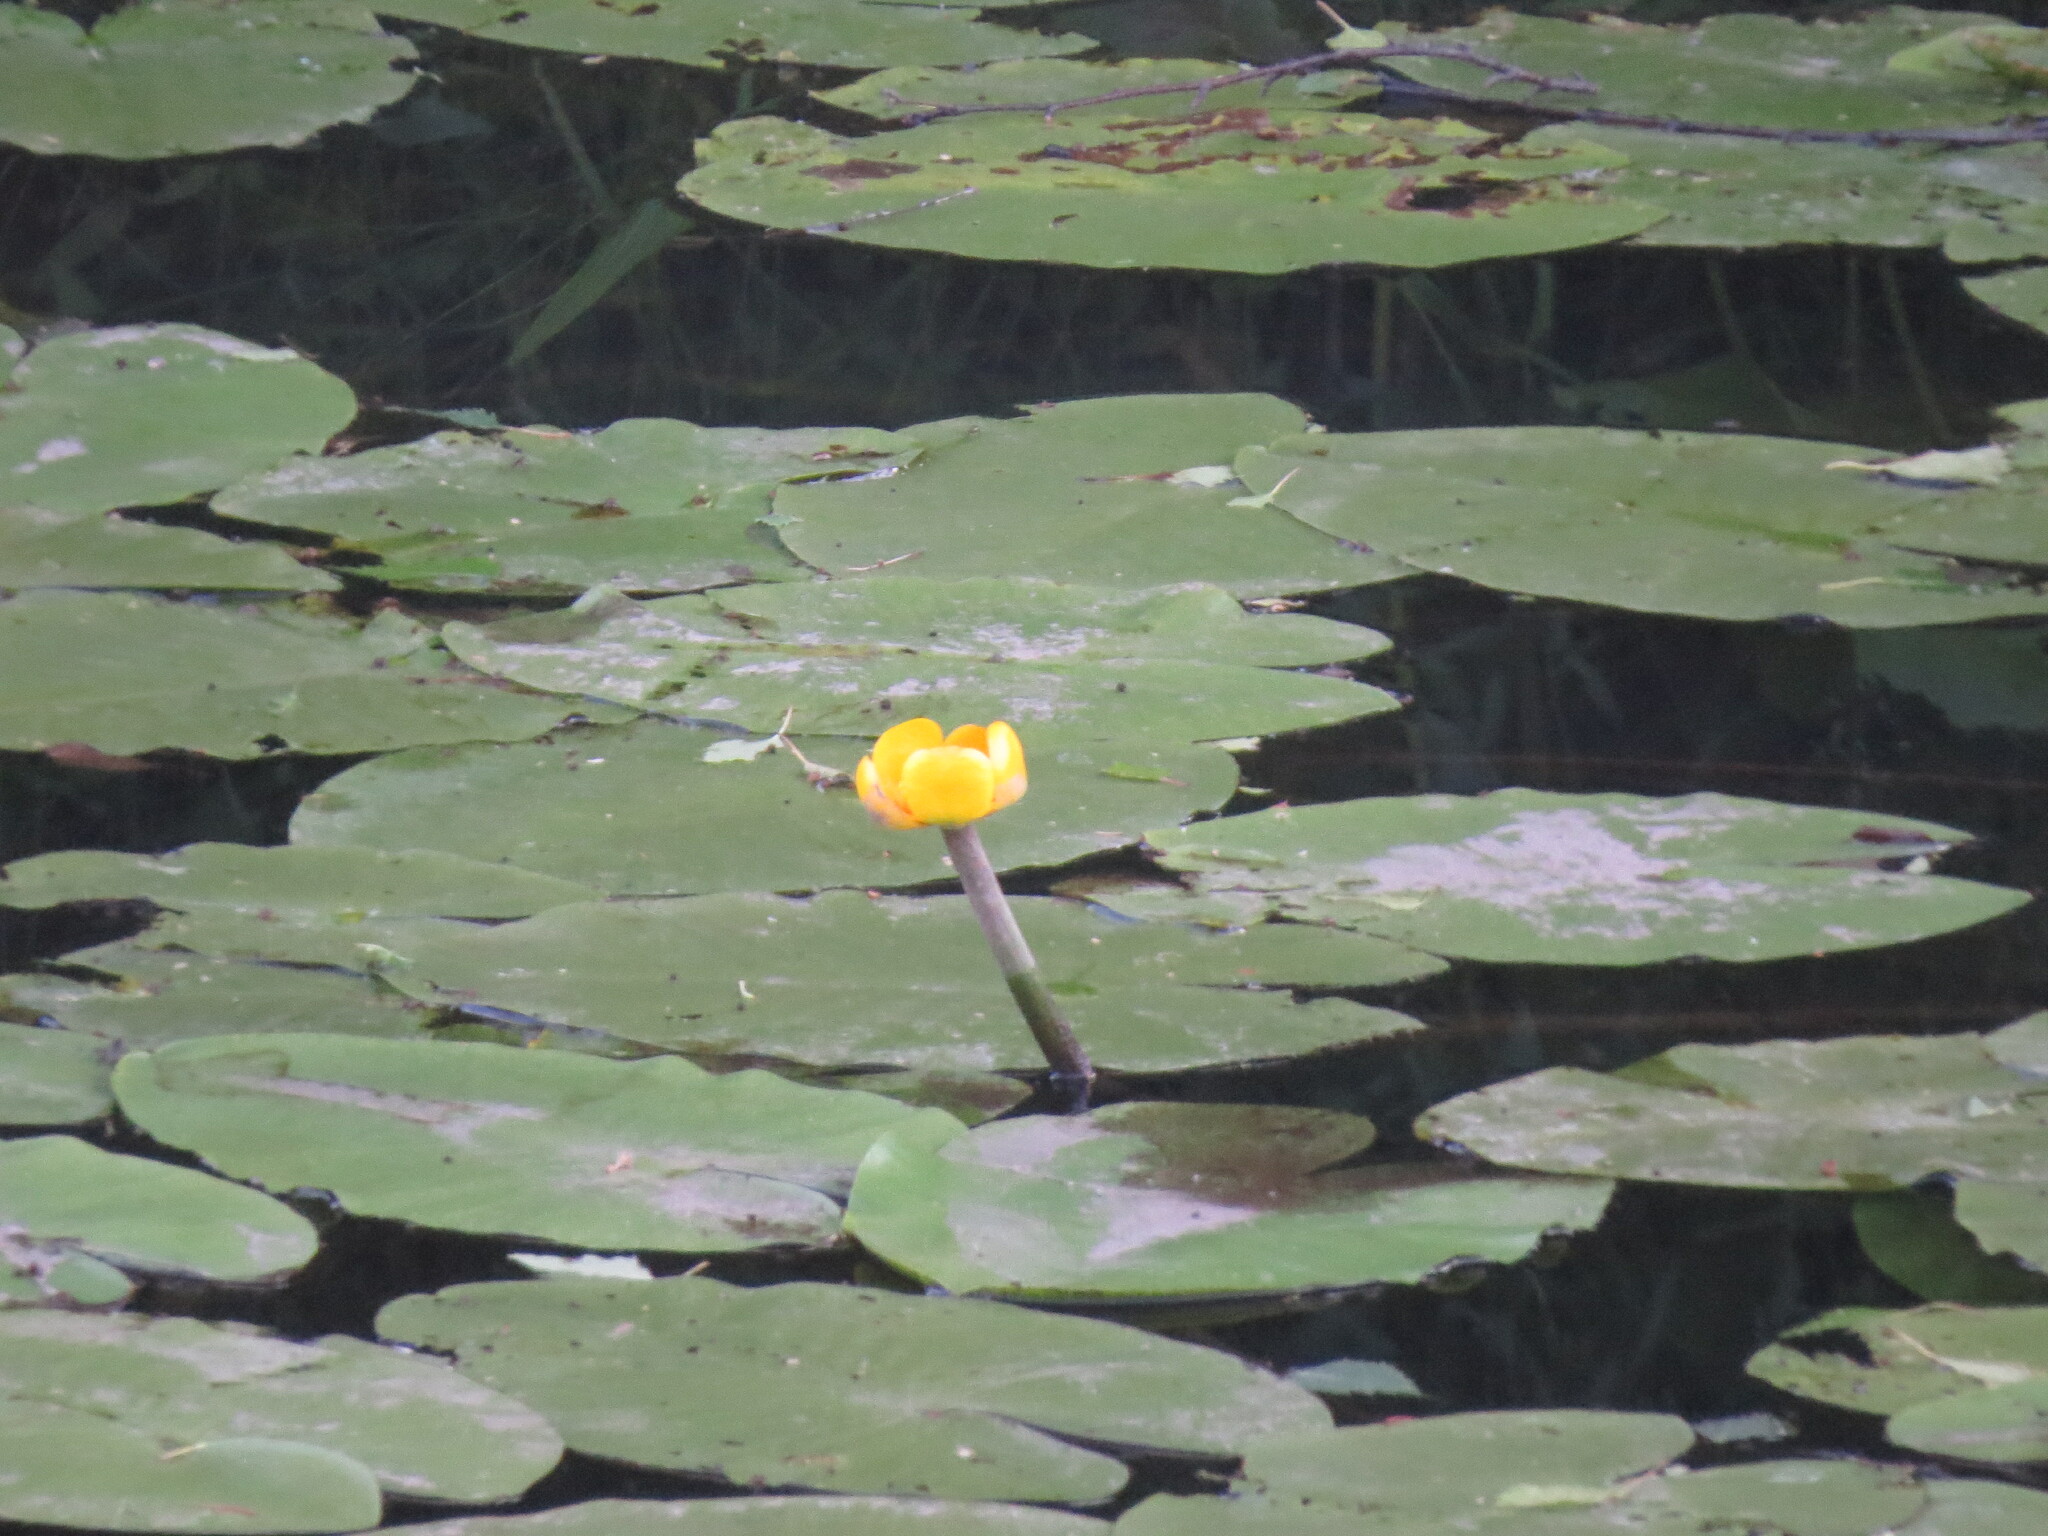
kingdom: Plantae
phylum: Tracheophyta
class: Magnoliopsida
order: Nymphaeales
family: Nymphaeaceae
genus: Nuphar
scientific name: Nuphar lutea
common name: Yellow water-lily
